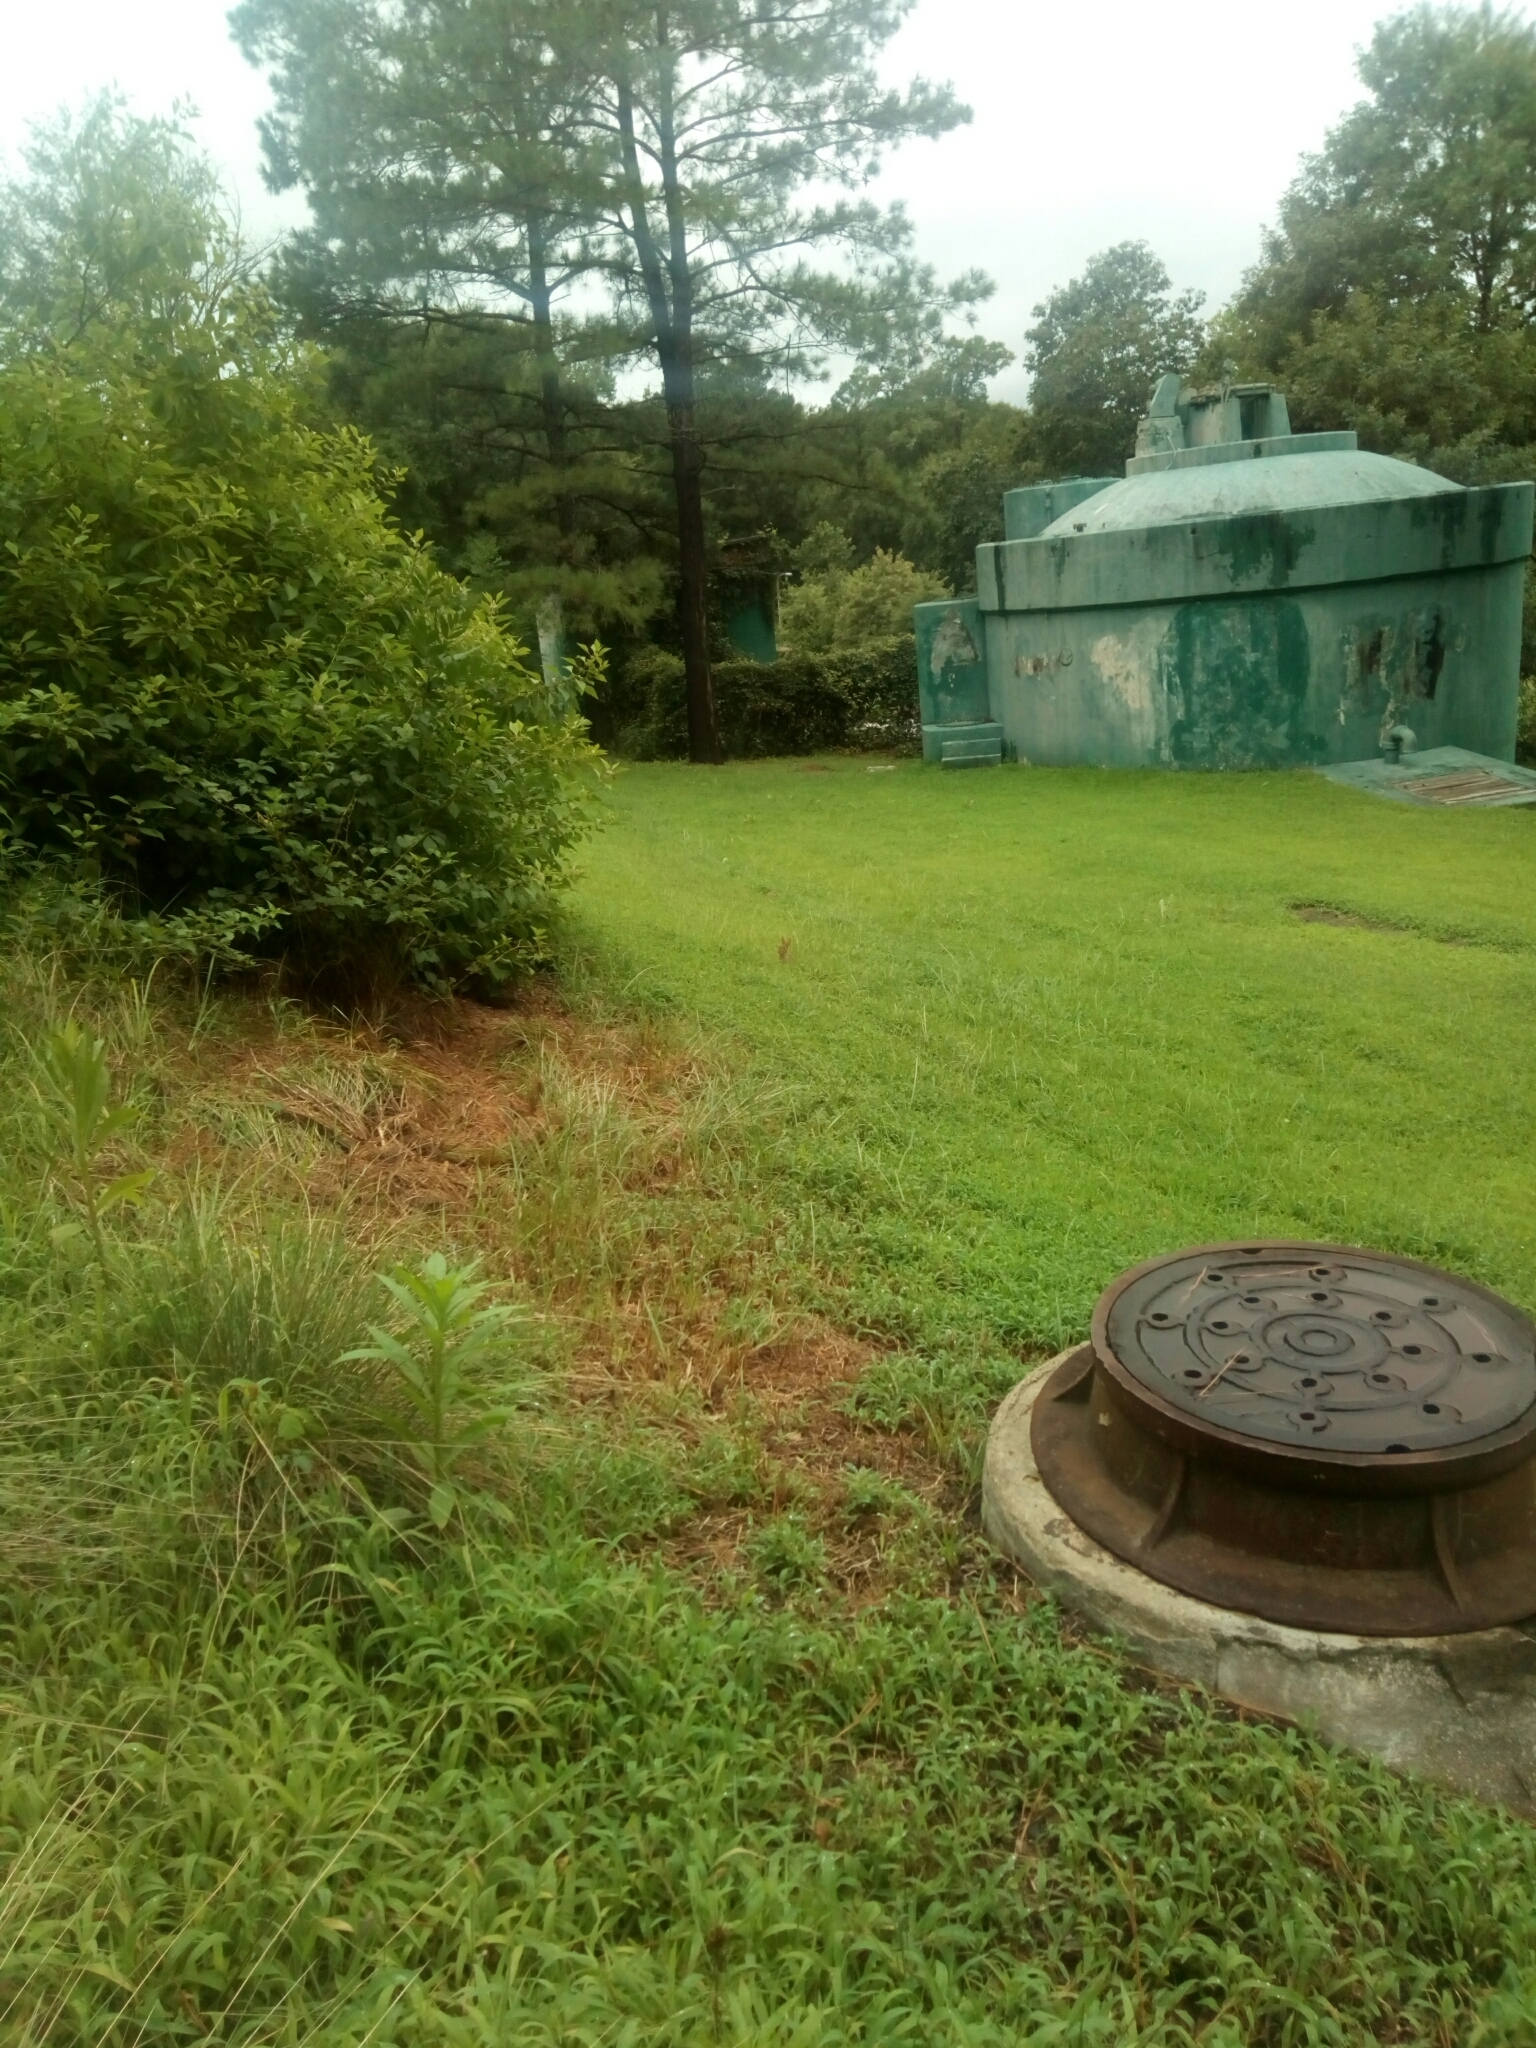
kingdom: Animalia
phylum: Chordata
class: Mammalia
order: Lagomorpha
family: Leporidae
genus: Sylvilagus
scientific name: Sylvilagus floridanus
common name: Eastern cottontail
